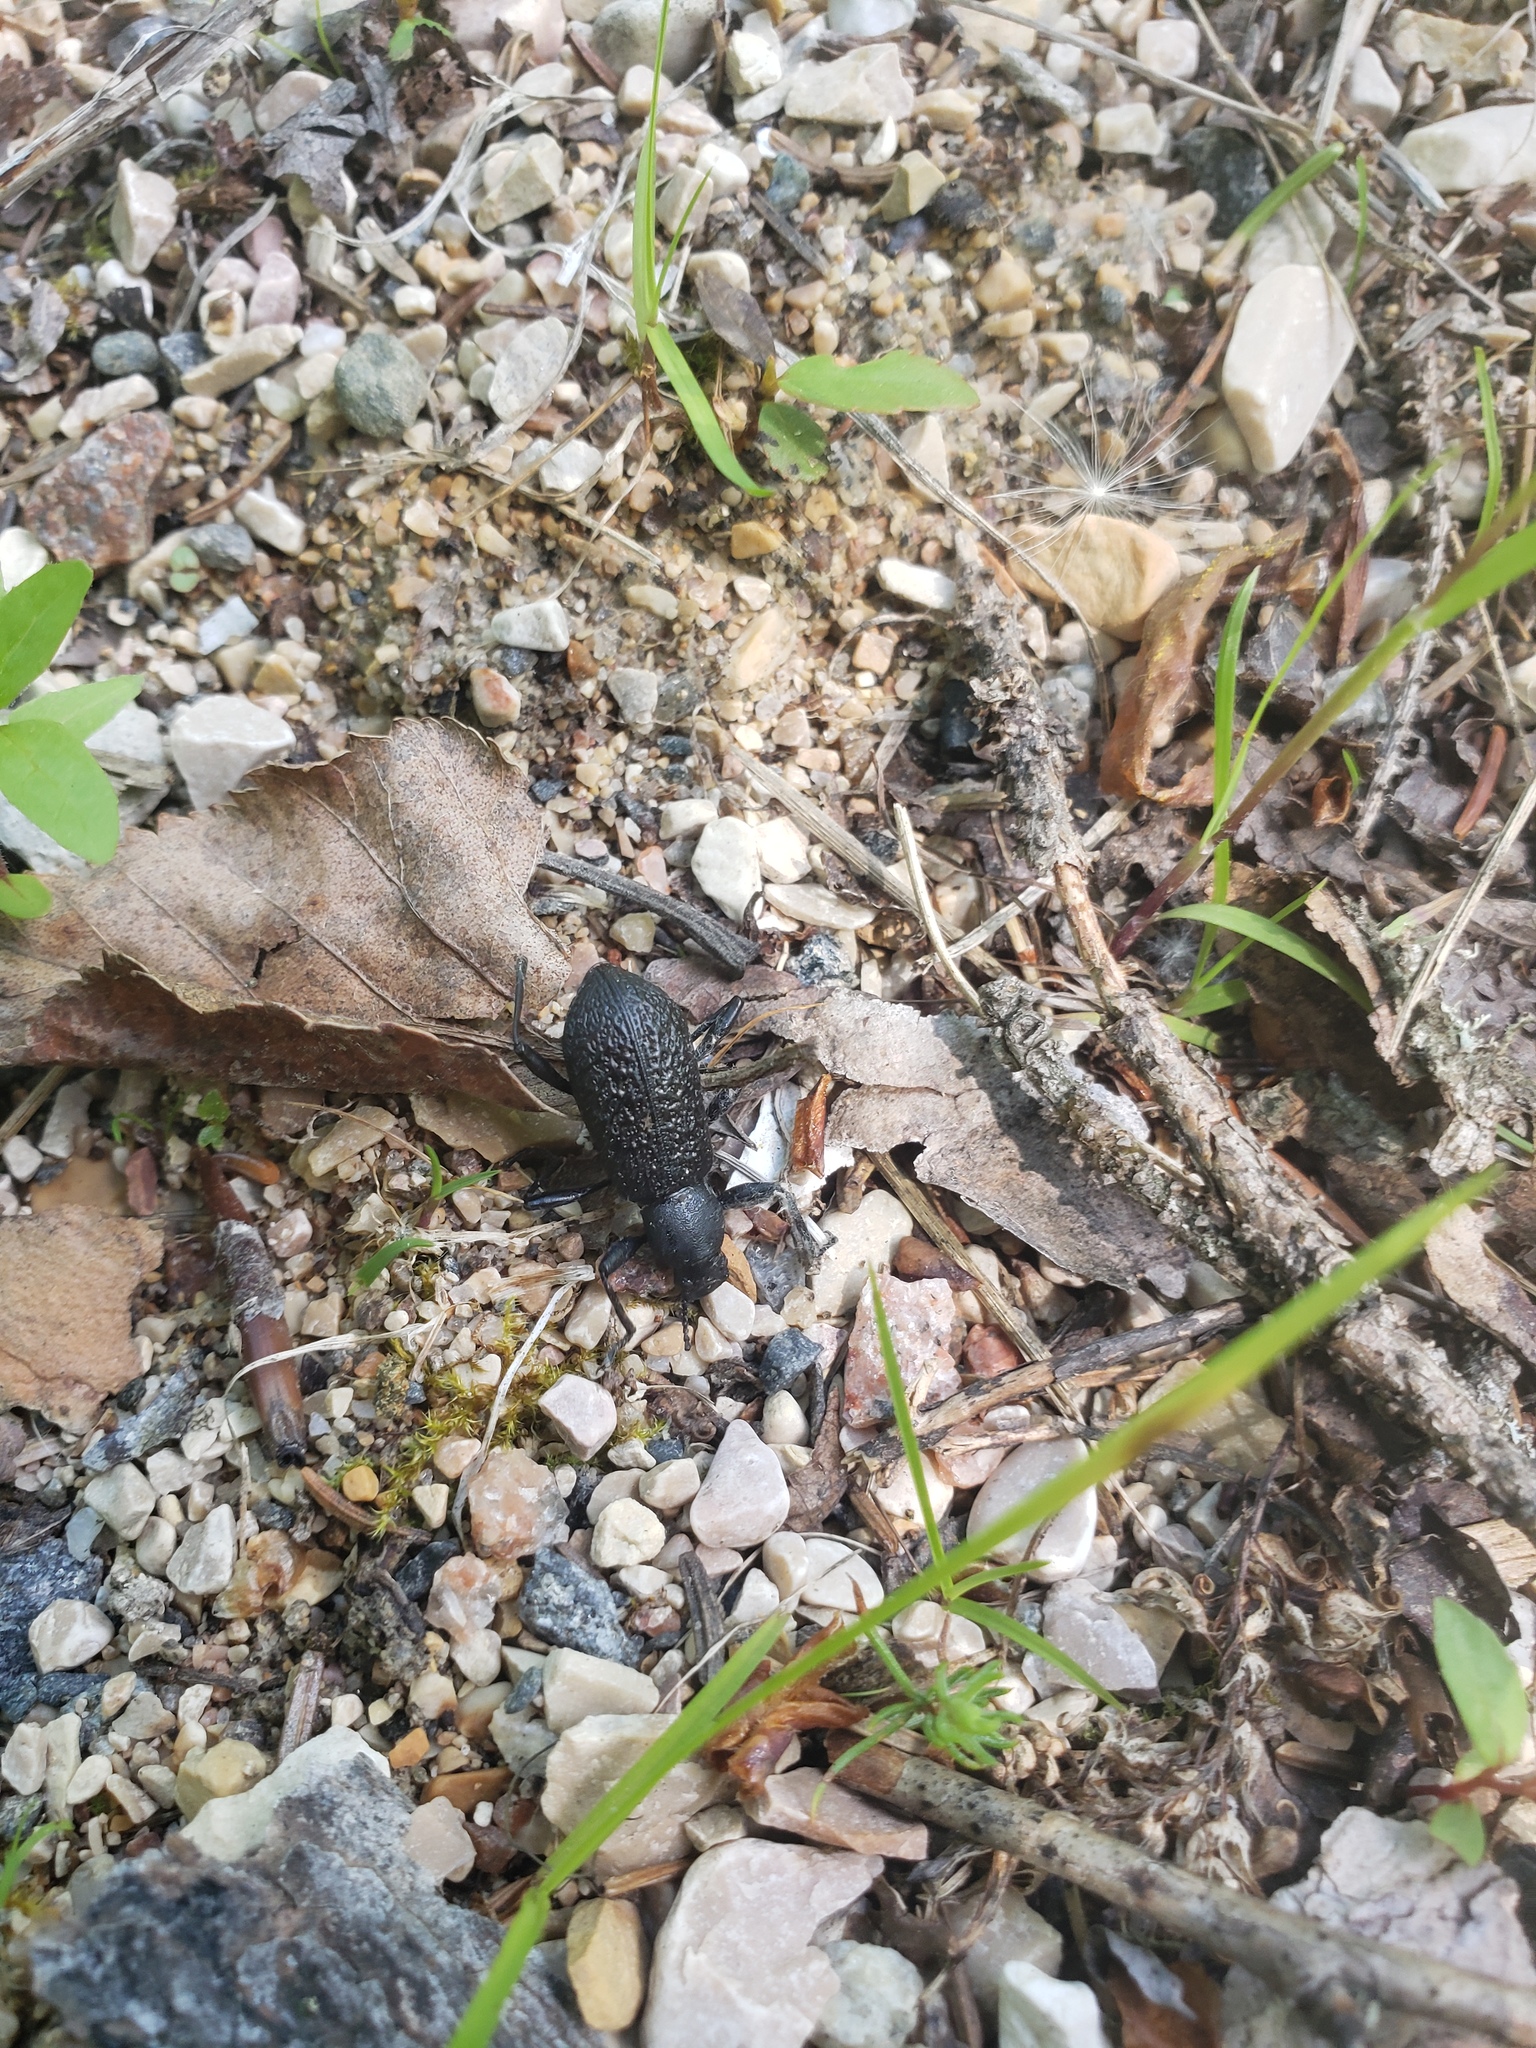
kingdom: Animalia
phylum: Arthropoda
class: Insecta
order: Coleoptera
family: Tenebrionidae
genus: Upis
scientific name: Upis ceramboides
